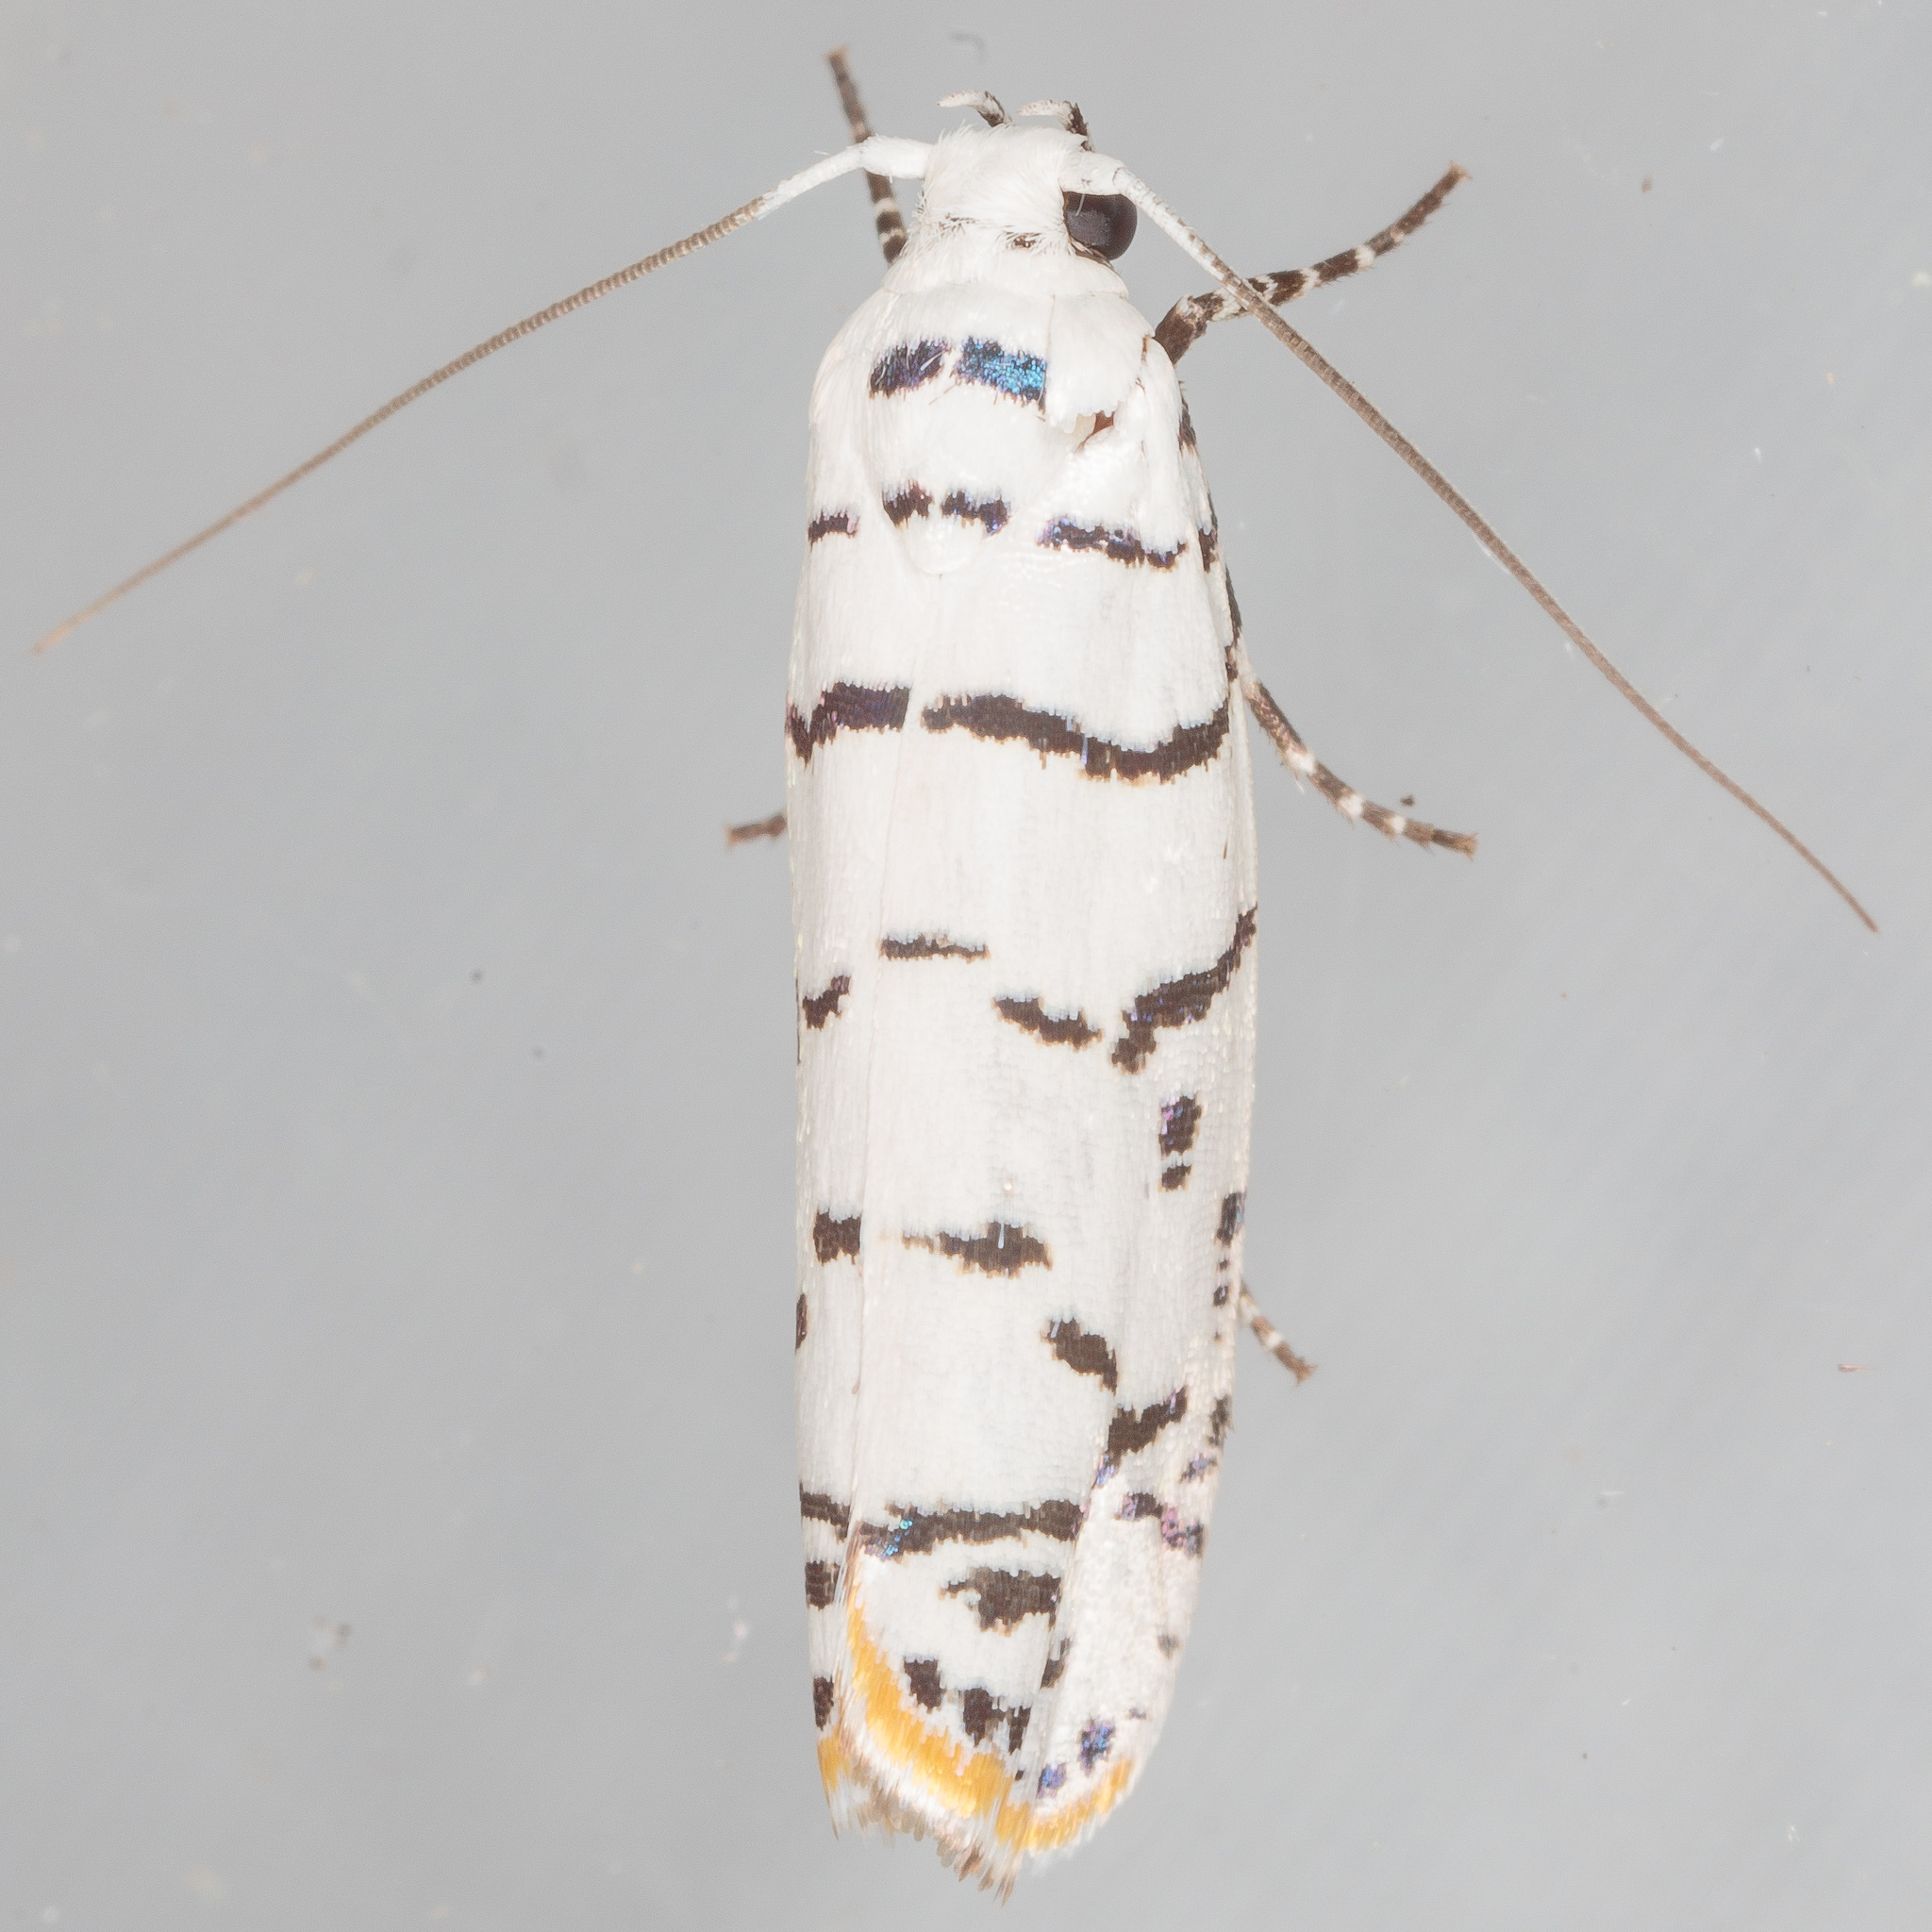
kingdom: Animalia
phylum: Arthropoda
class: Insecta
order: Lepidoptera
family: Ethmiidae
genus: Ethmia
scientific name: Ethmia delliella
